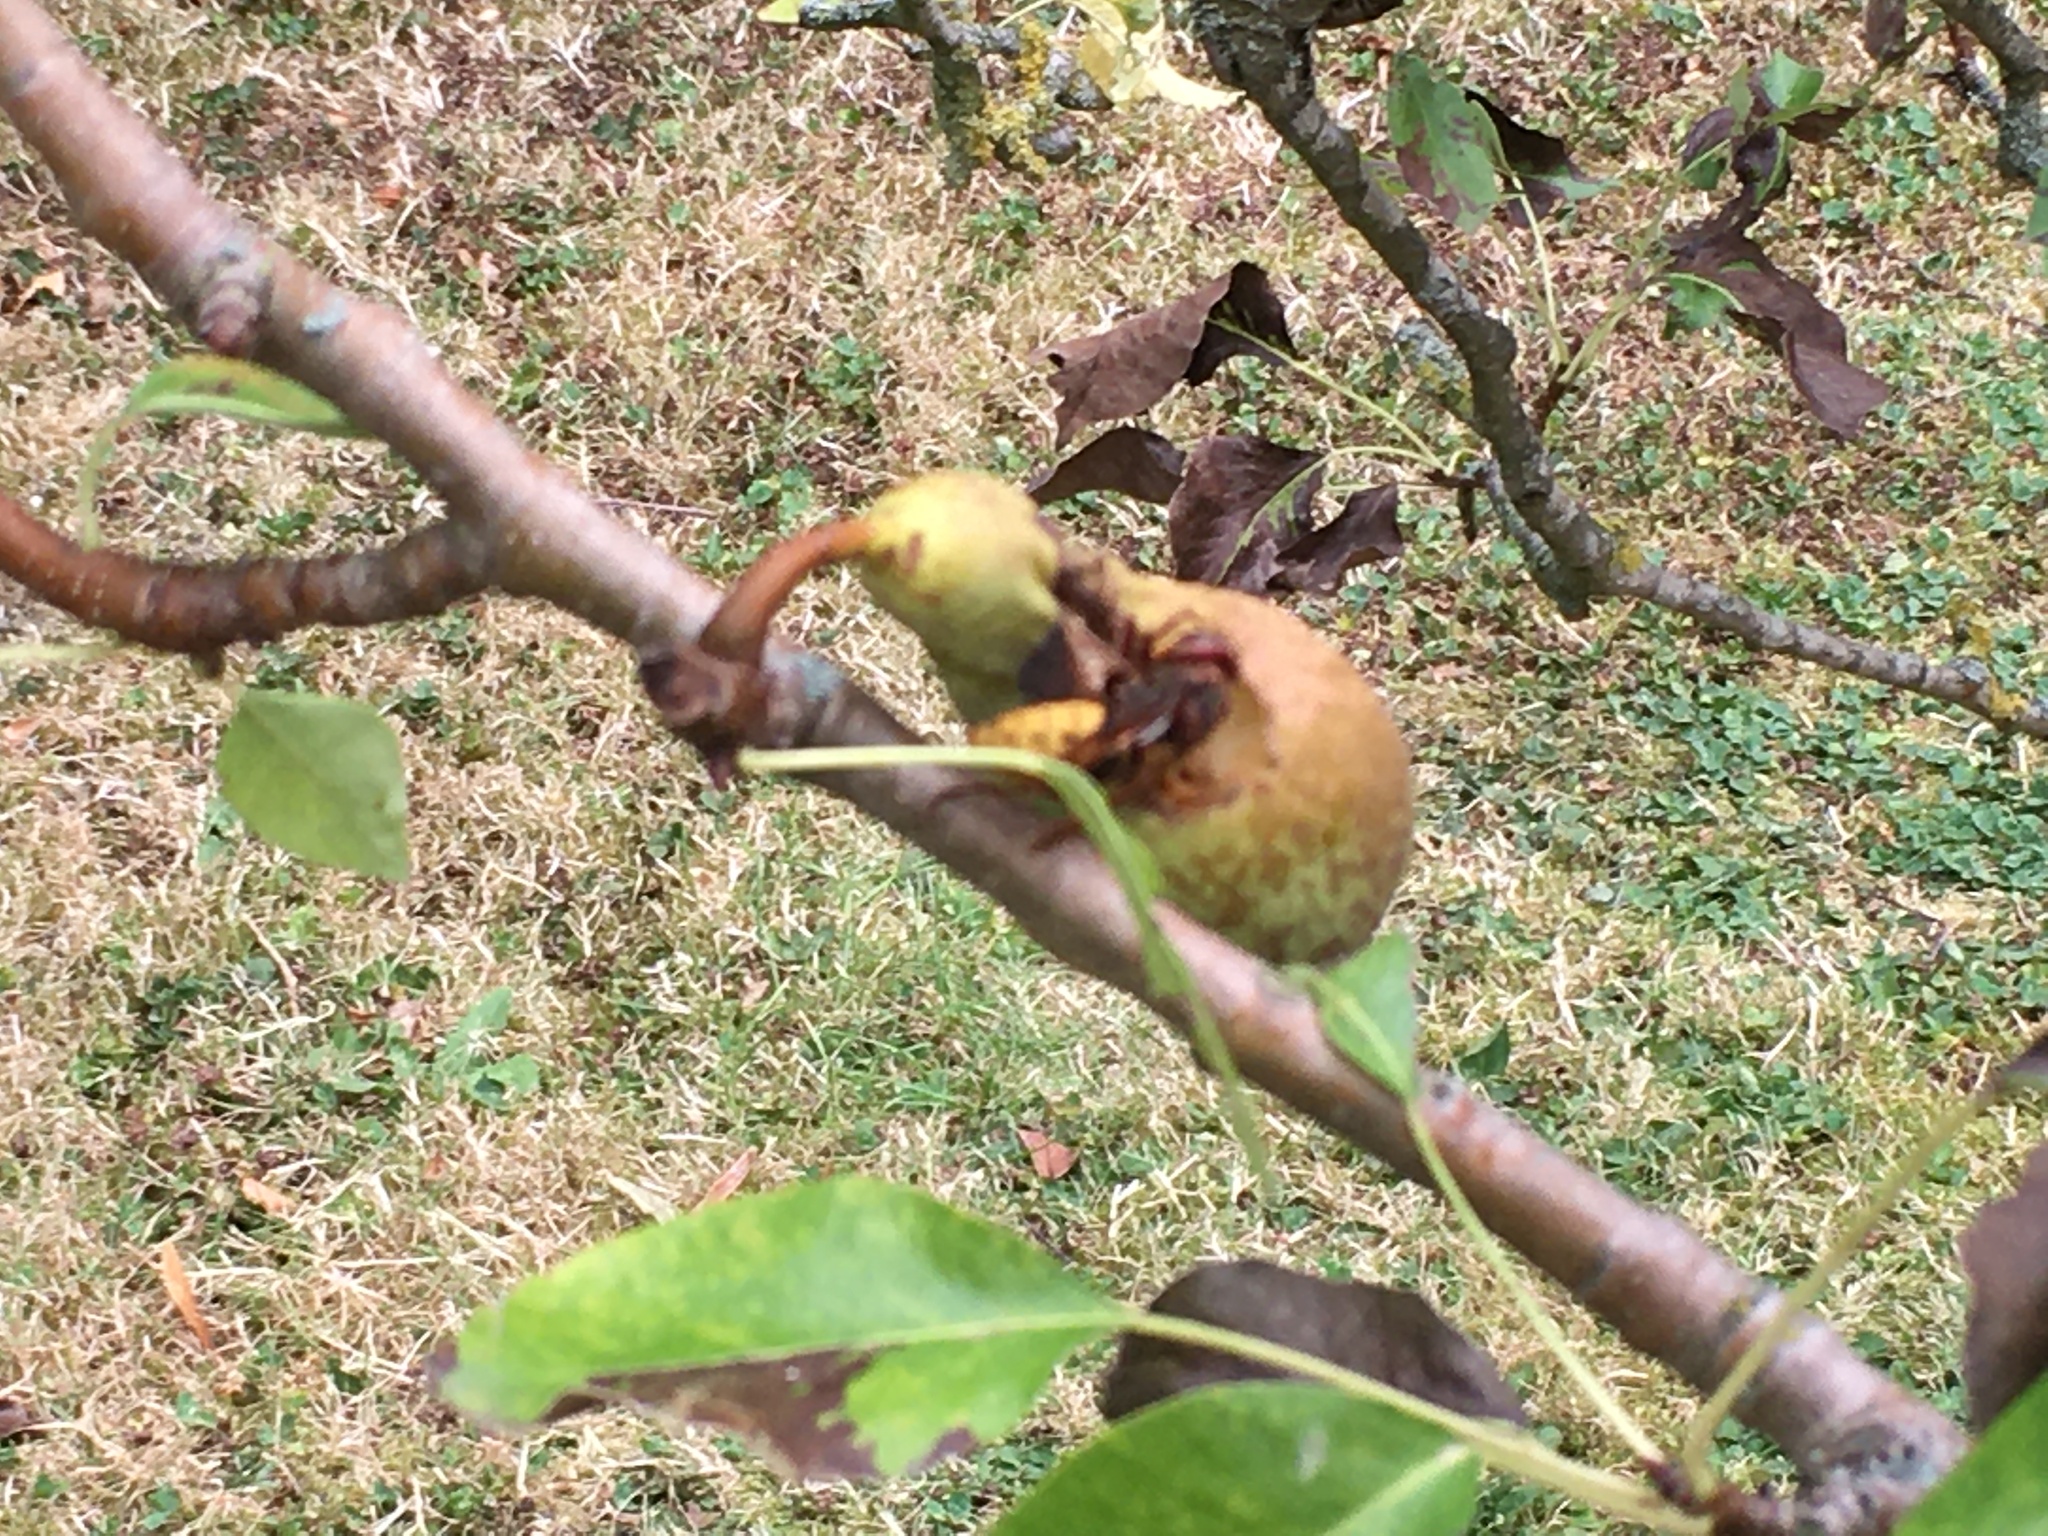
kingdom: Animalia
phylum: Arthropoda
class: Insecta
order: Hymenoptera
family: Vespidae
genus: Vespa
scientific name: Vespa crabro
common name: Hornet
